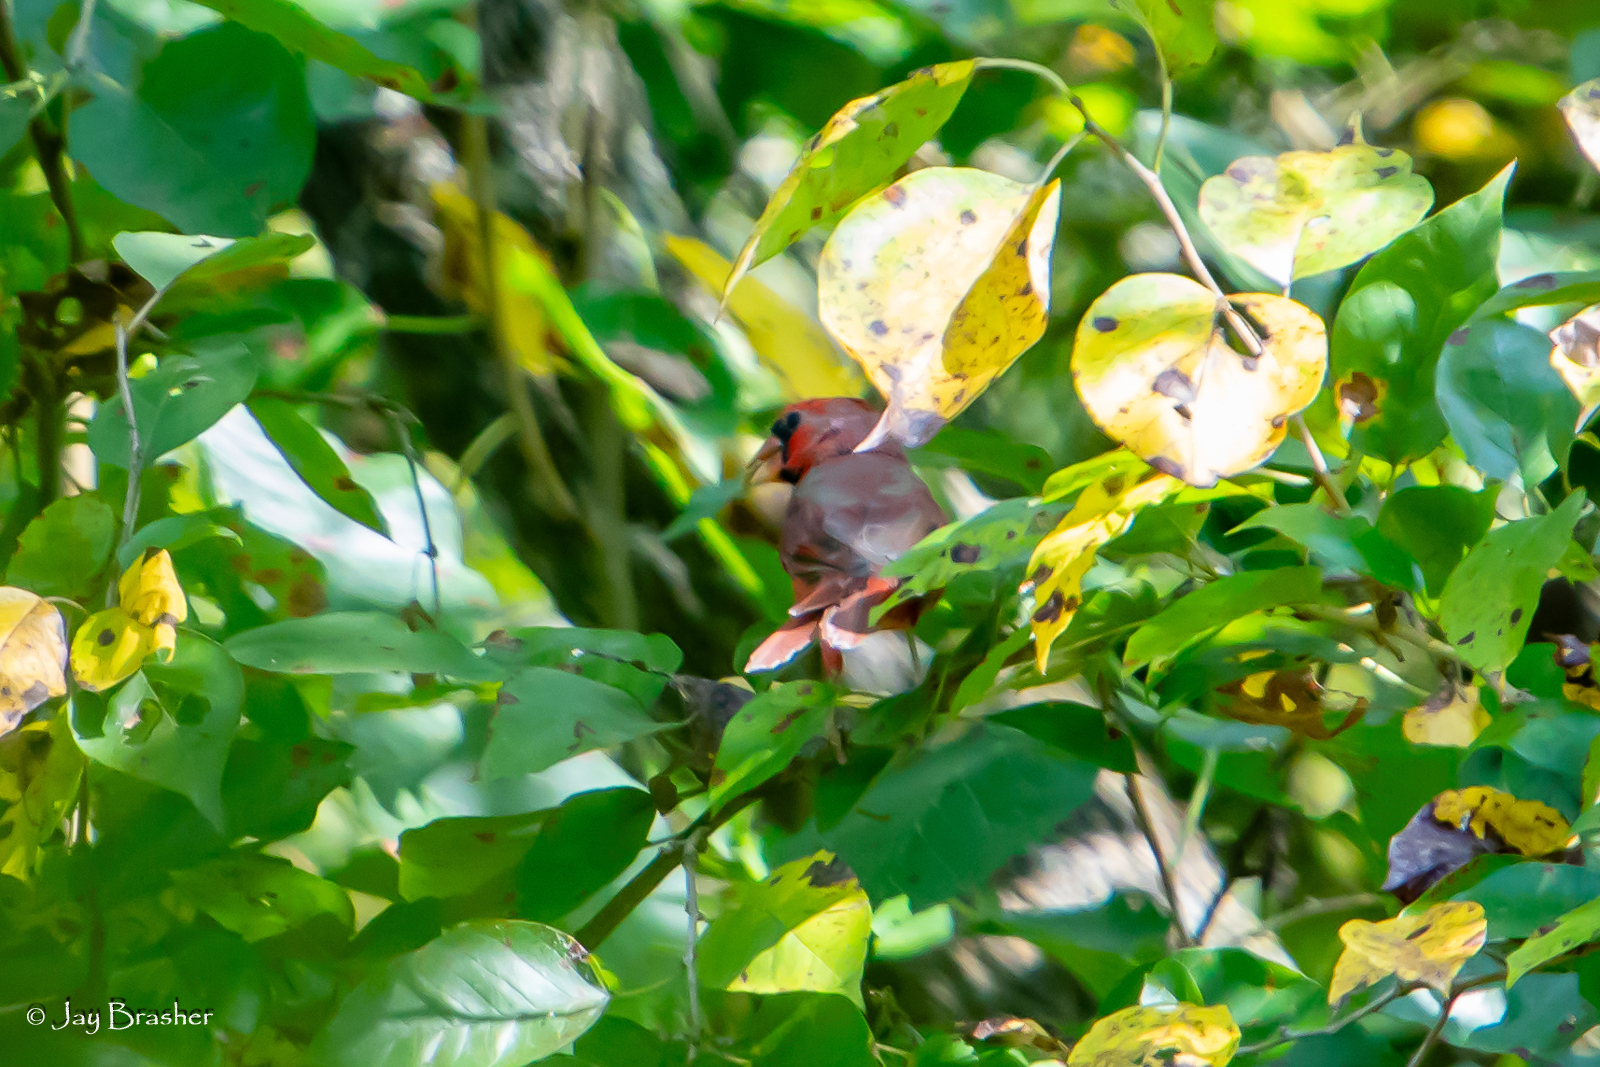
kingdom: Animalia
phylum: Chordata
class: Aves
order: Passeriformes
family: Cardinalidae
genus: Cardinalis
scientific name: Cardinalis cardinalis
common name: Northern cardinal
